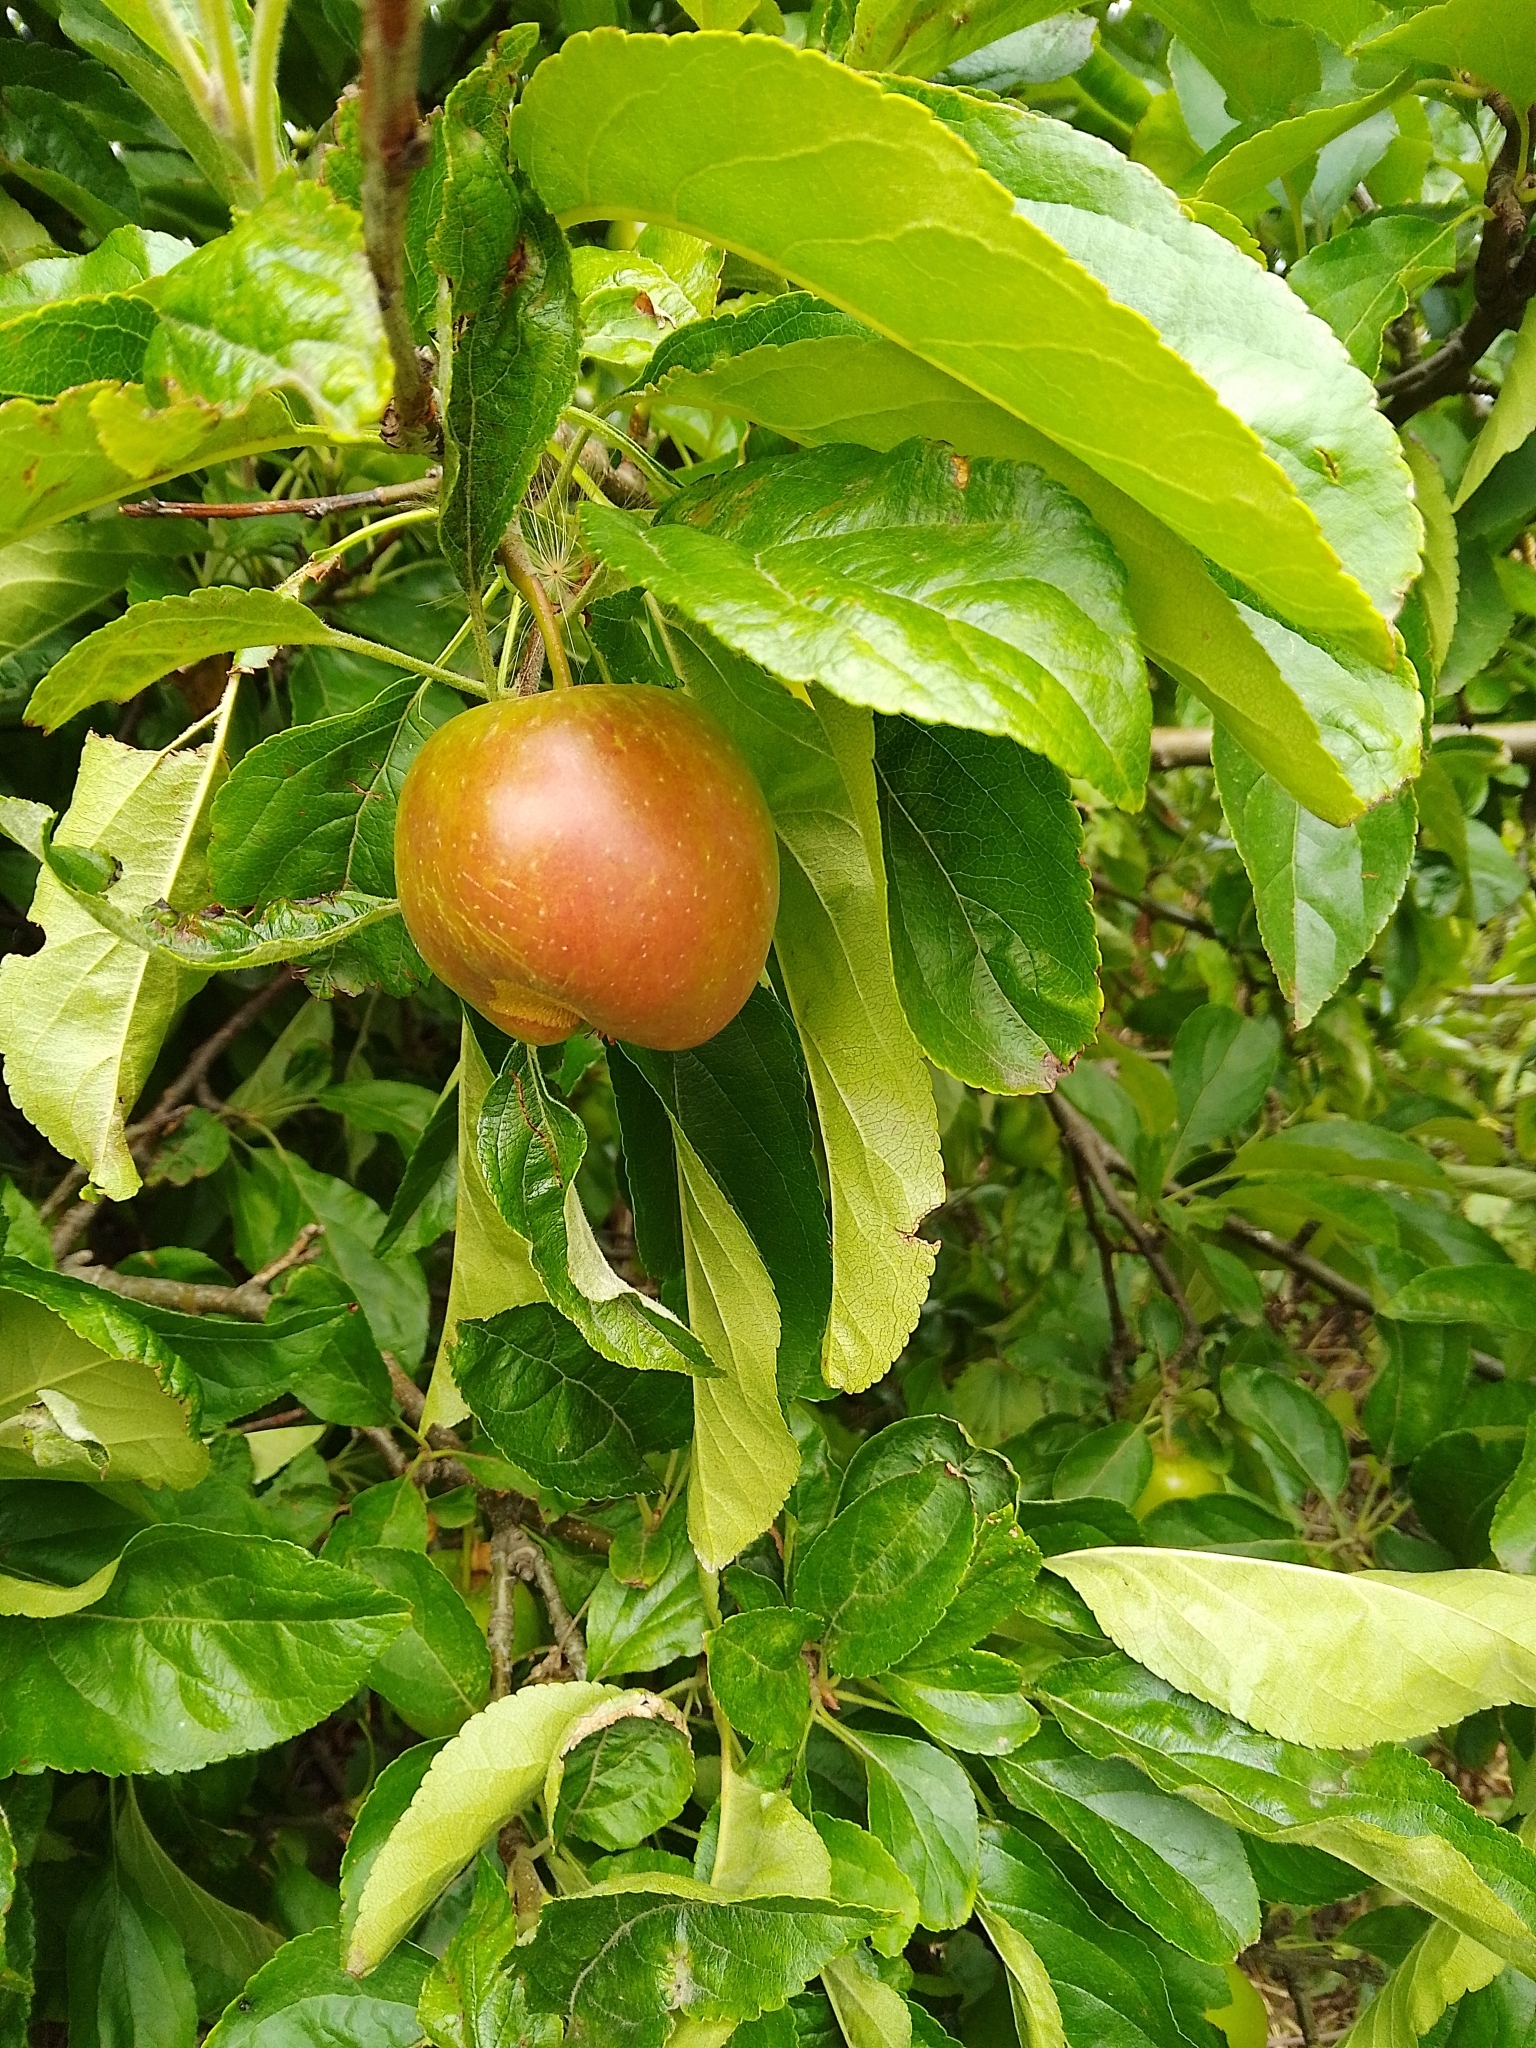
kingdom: Plantae
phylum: Tracheophyta
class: Magnoliopsida
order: Rosales
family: Rosaceae
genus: Malus
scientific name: Malus domestica
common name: Apple
